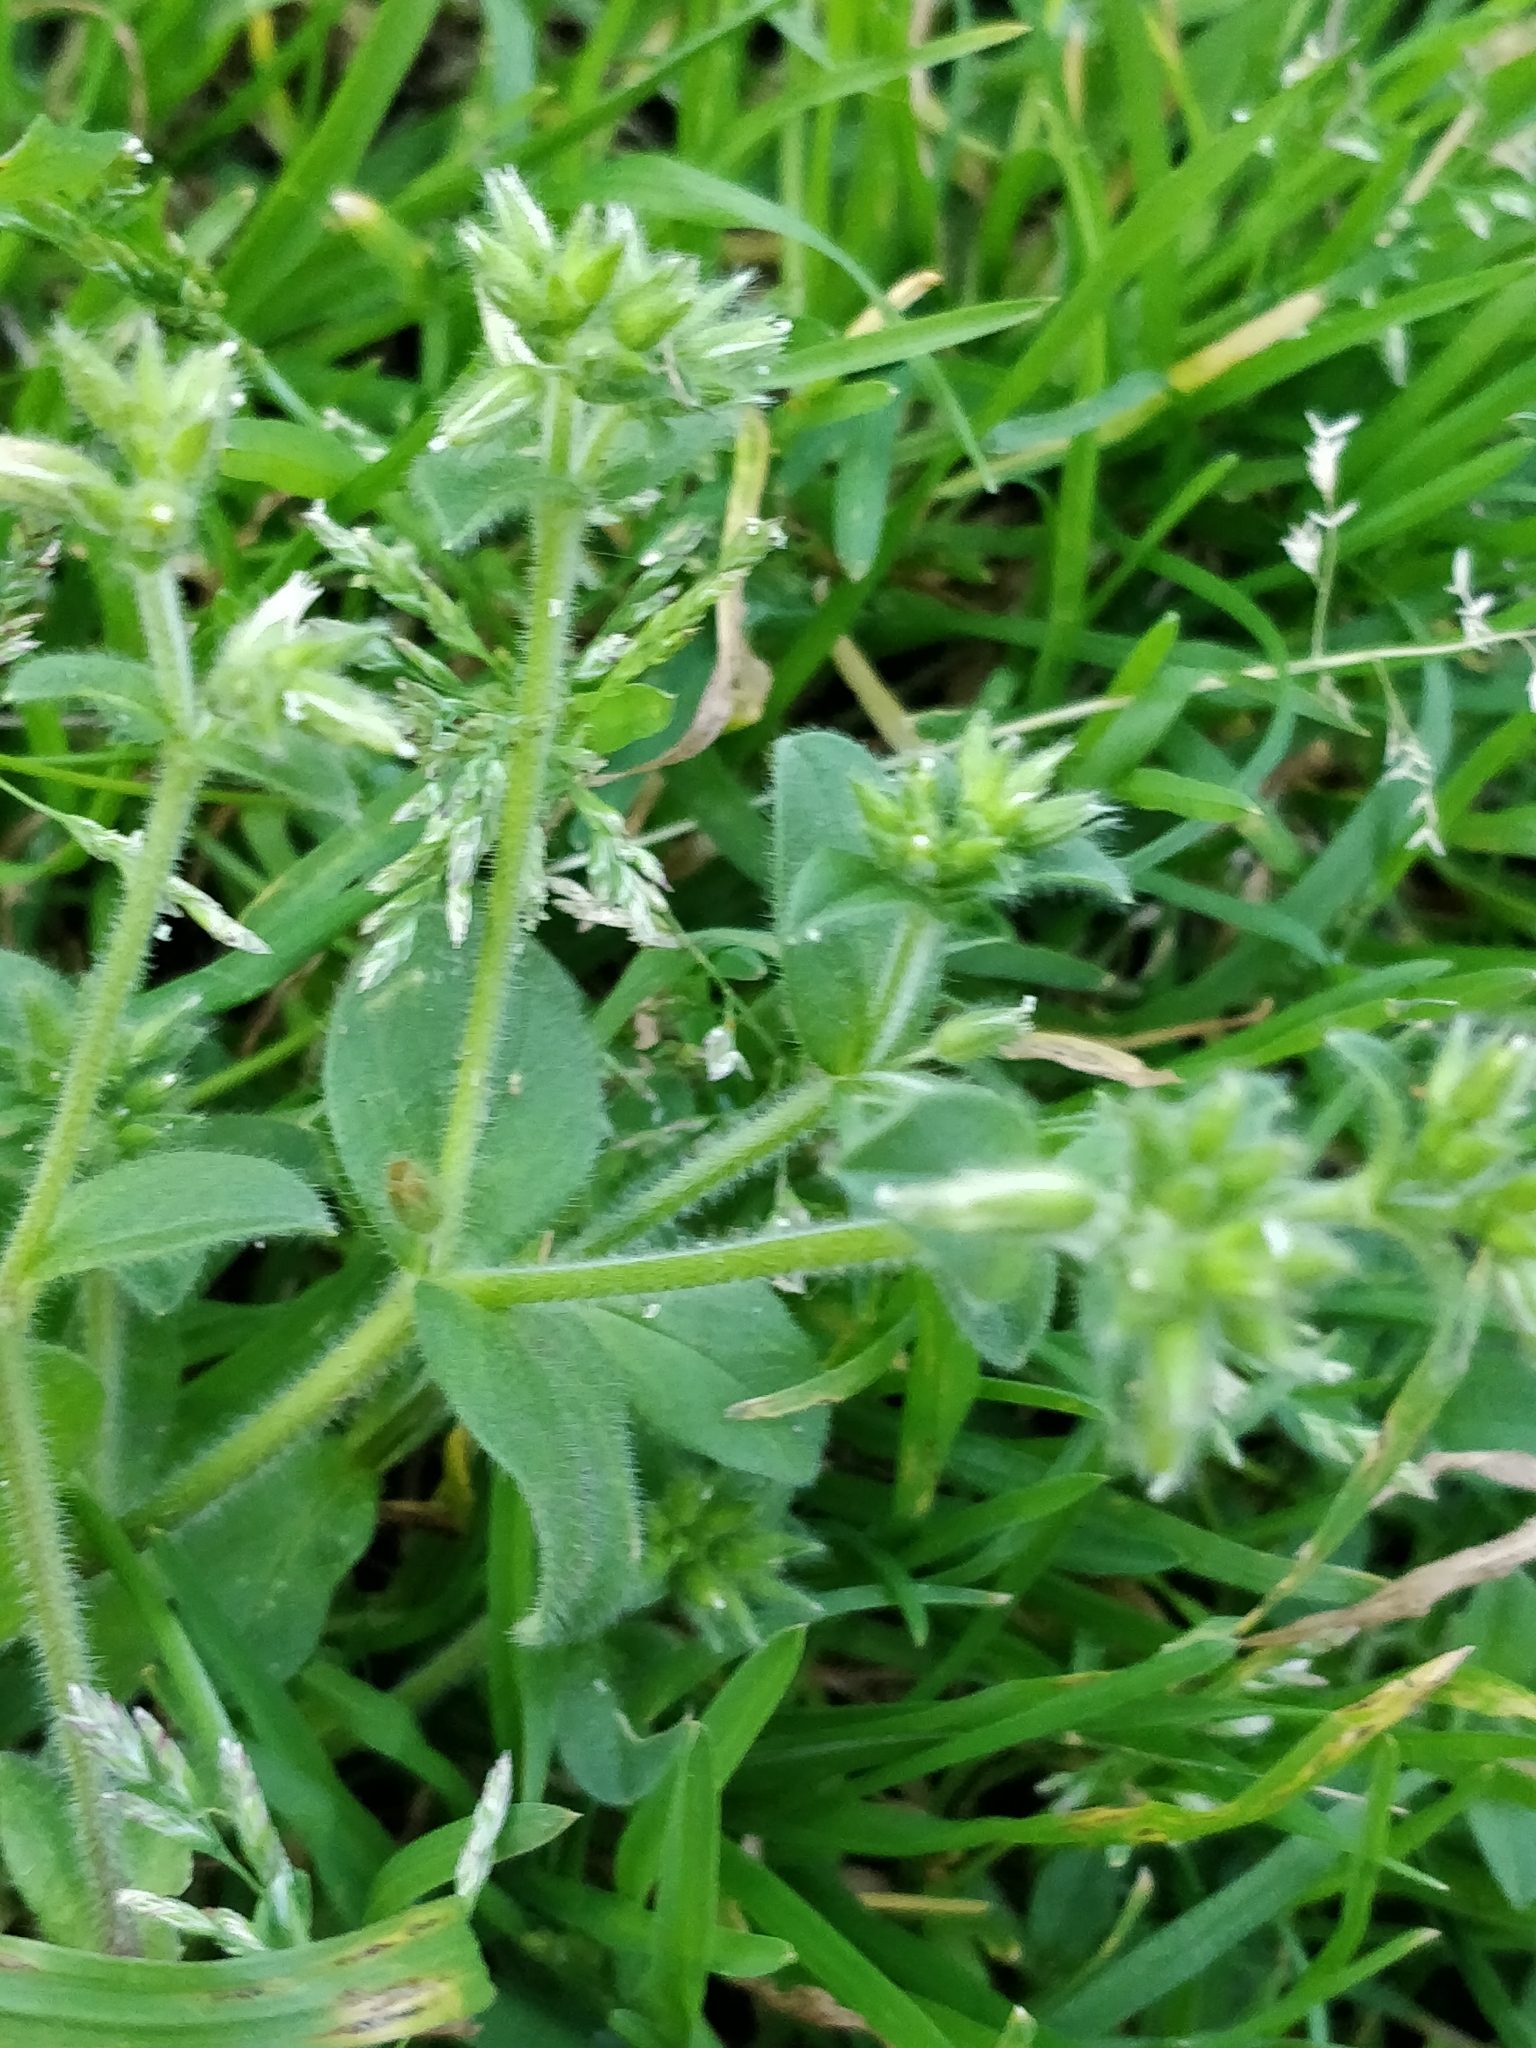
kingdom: Plantae
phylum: Tracheophyta
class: Magnoliopsida
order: Caryophyllales
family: Caryophyllaceae
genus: Cerastium
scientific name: Cerastium glomeratum
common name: Sticky chickweed
